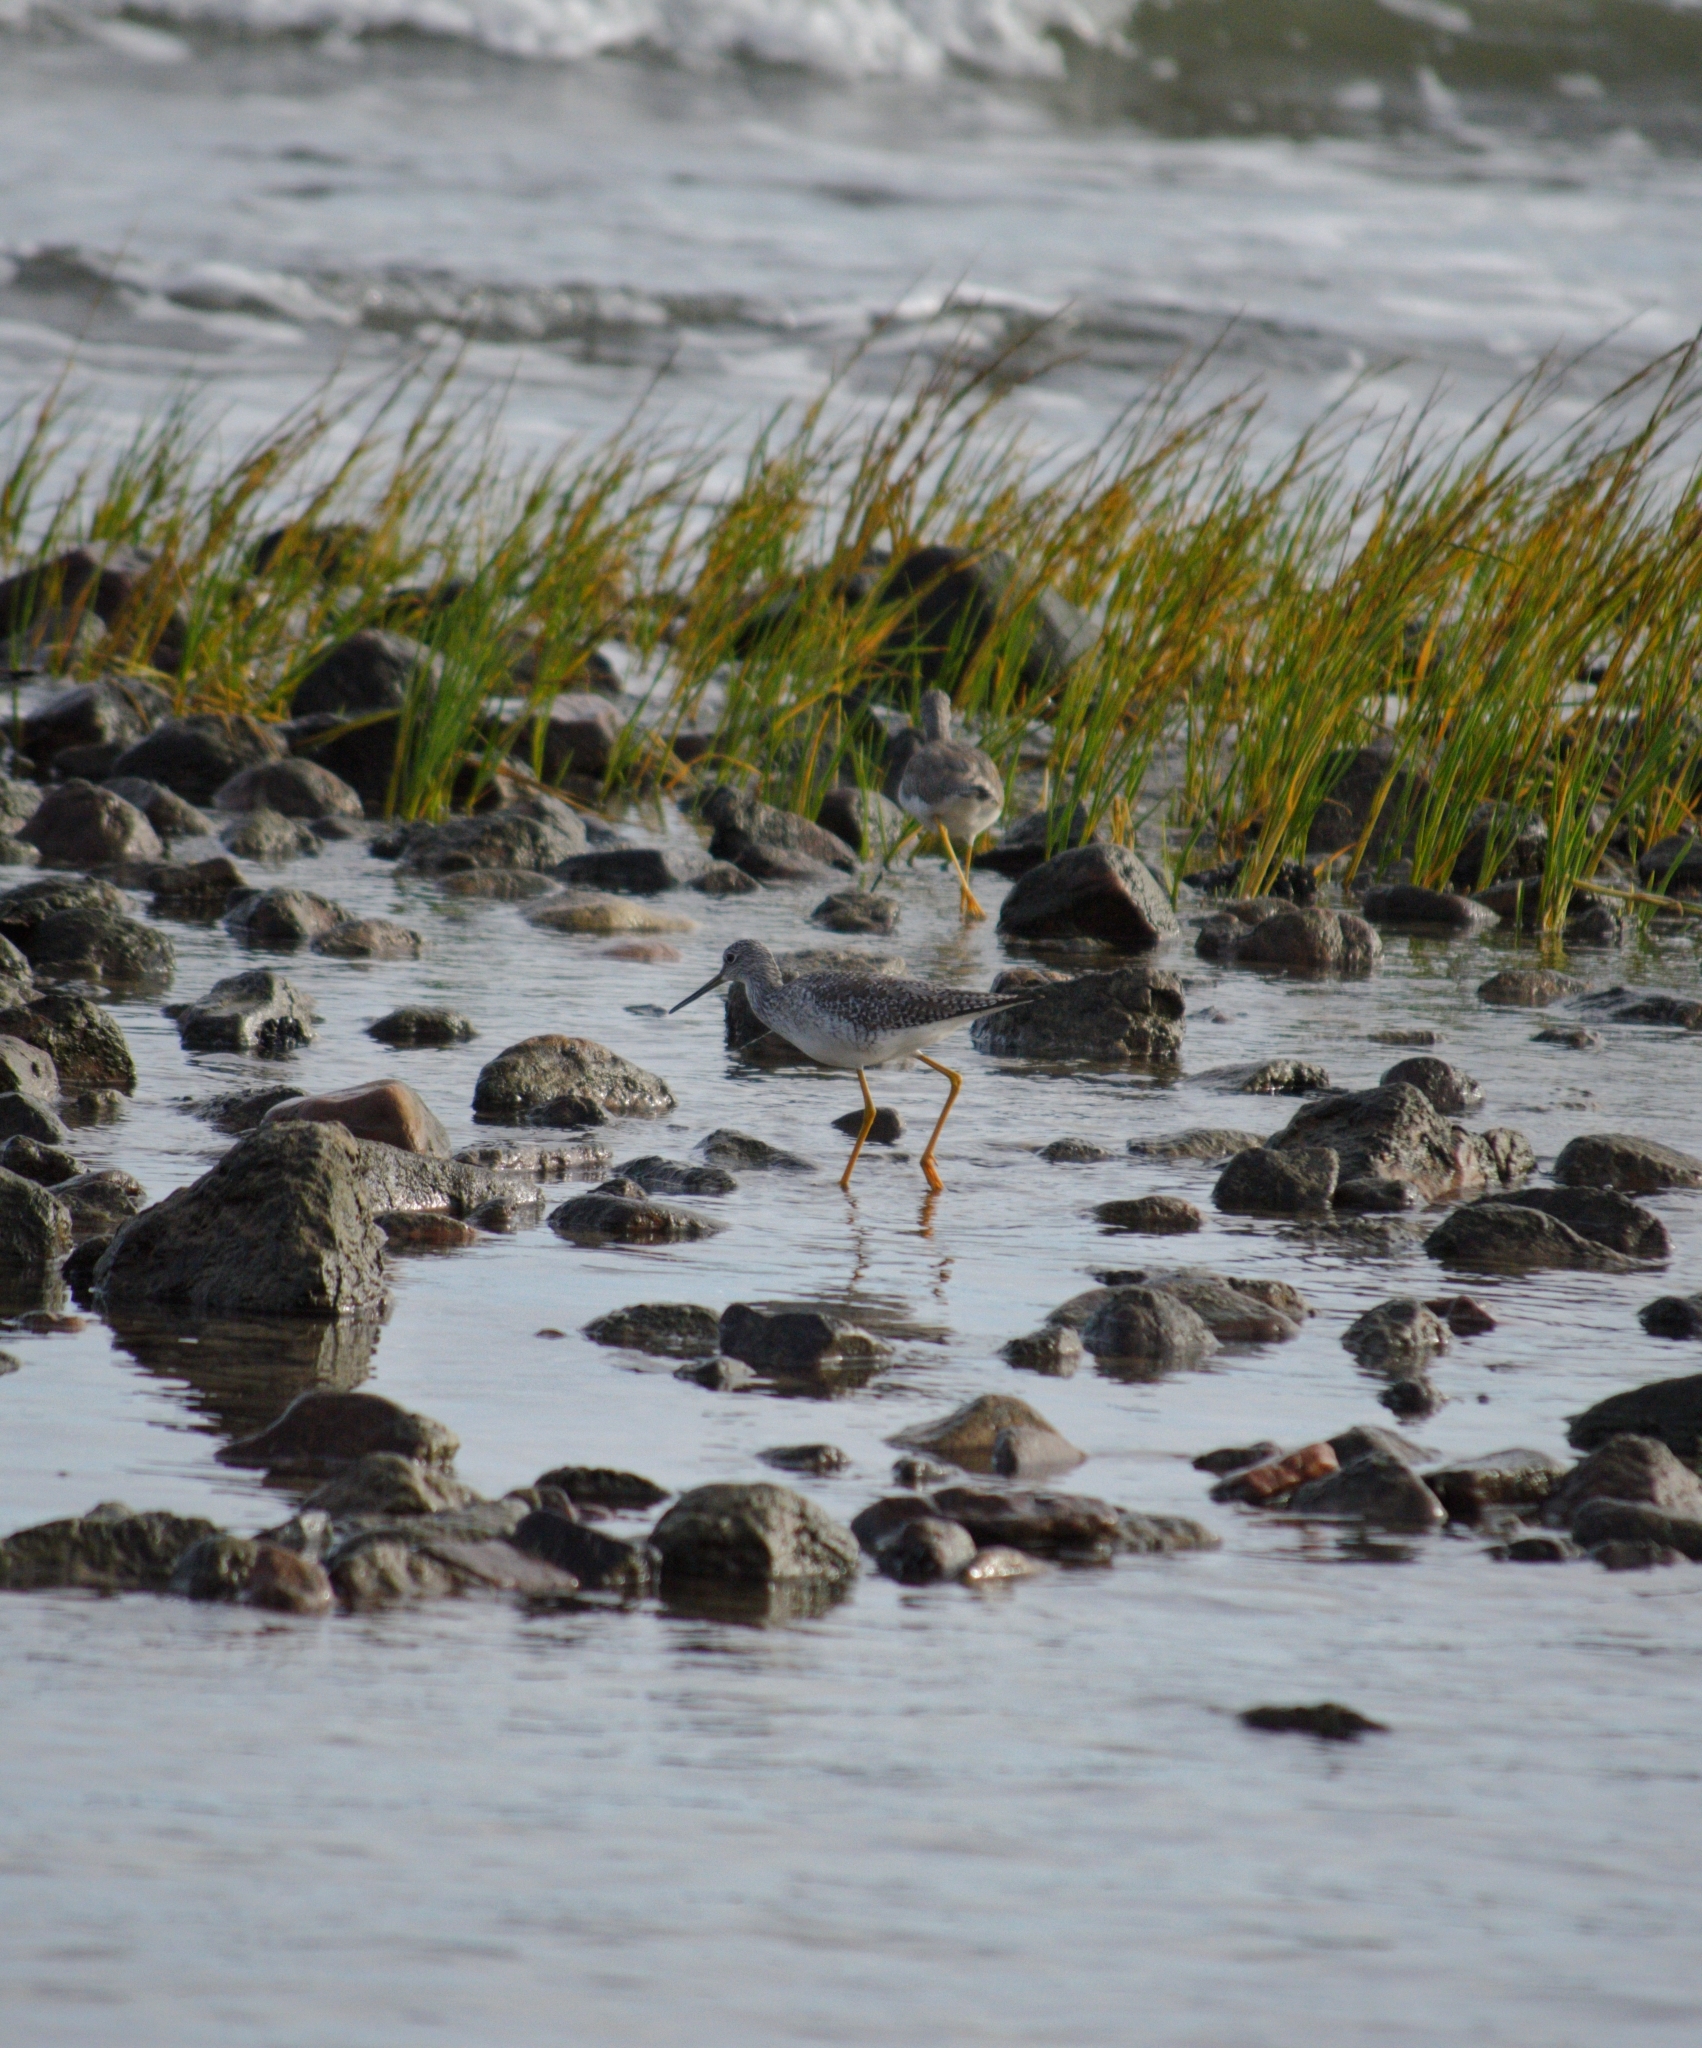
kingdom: Animalia
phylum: Chordata
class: Aves
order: Charadriiformes
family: Scolopacidae
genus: Tringa
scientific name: Tringa melanoleuca
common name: Greater yellowlegs
